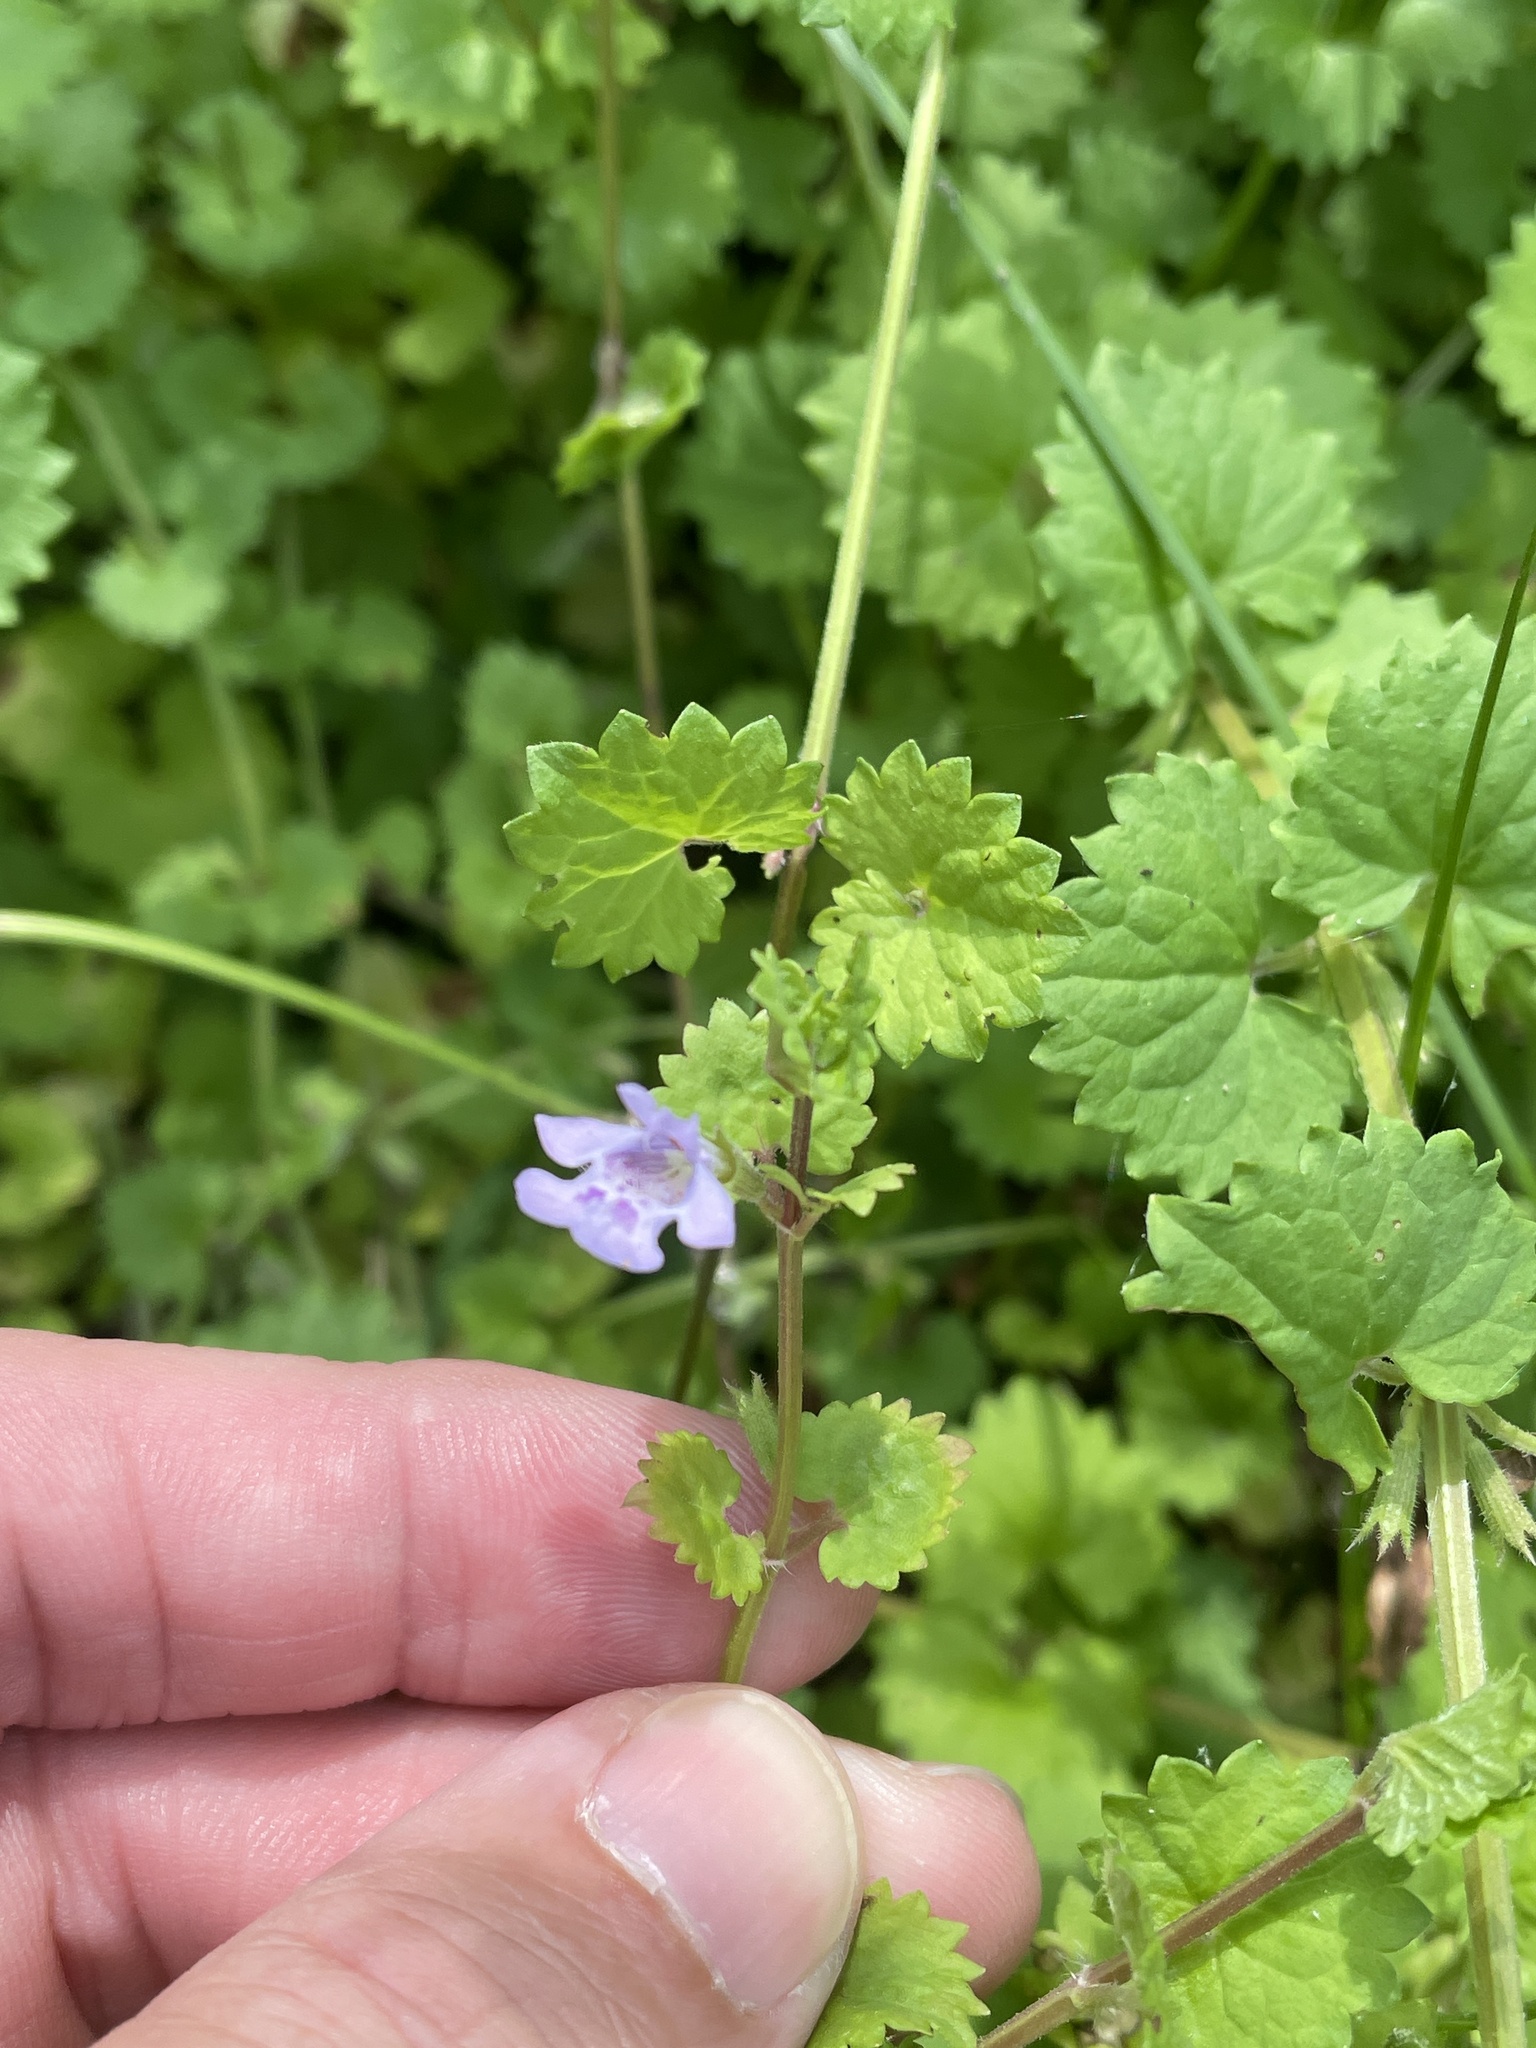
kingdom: Plantae
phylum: Tracheophyta
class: Magnoliopsida
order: Lamiales
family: Lamiaceae
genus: Glechoma
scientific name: Glechoma hederacea
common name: Ground ivy
